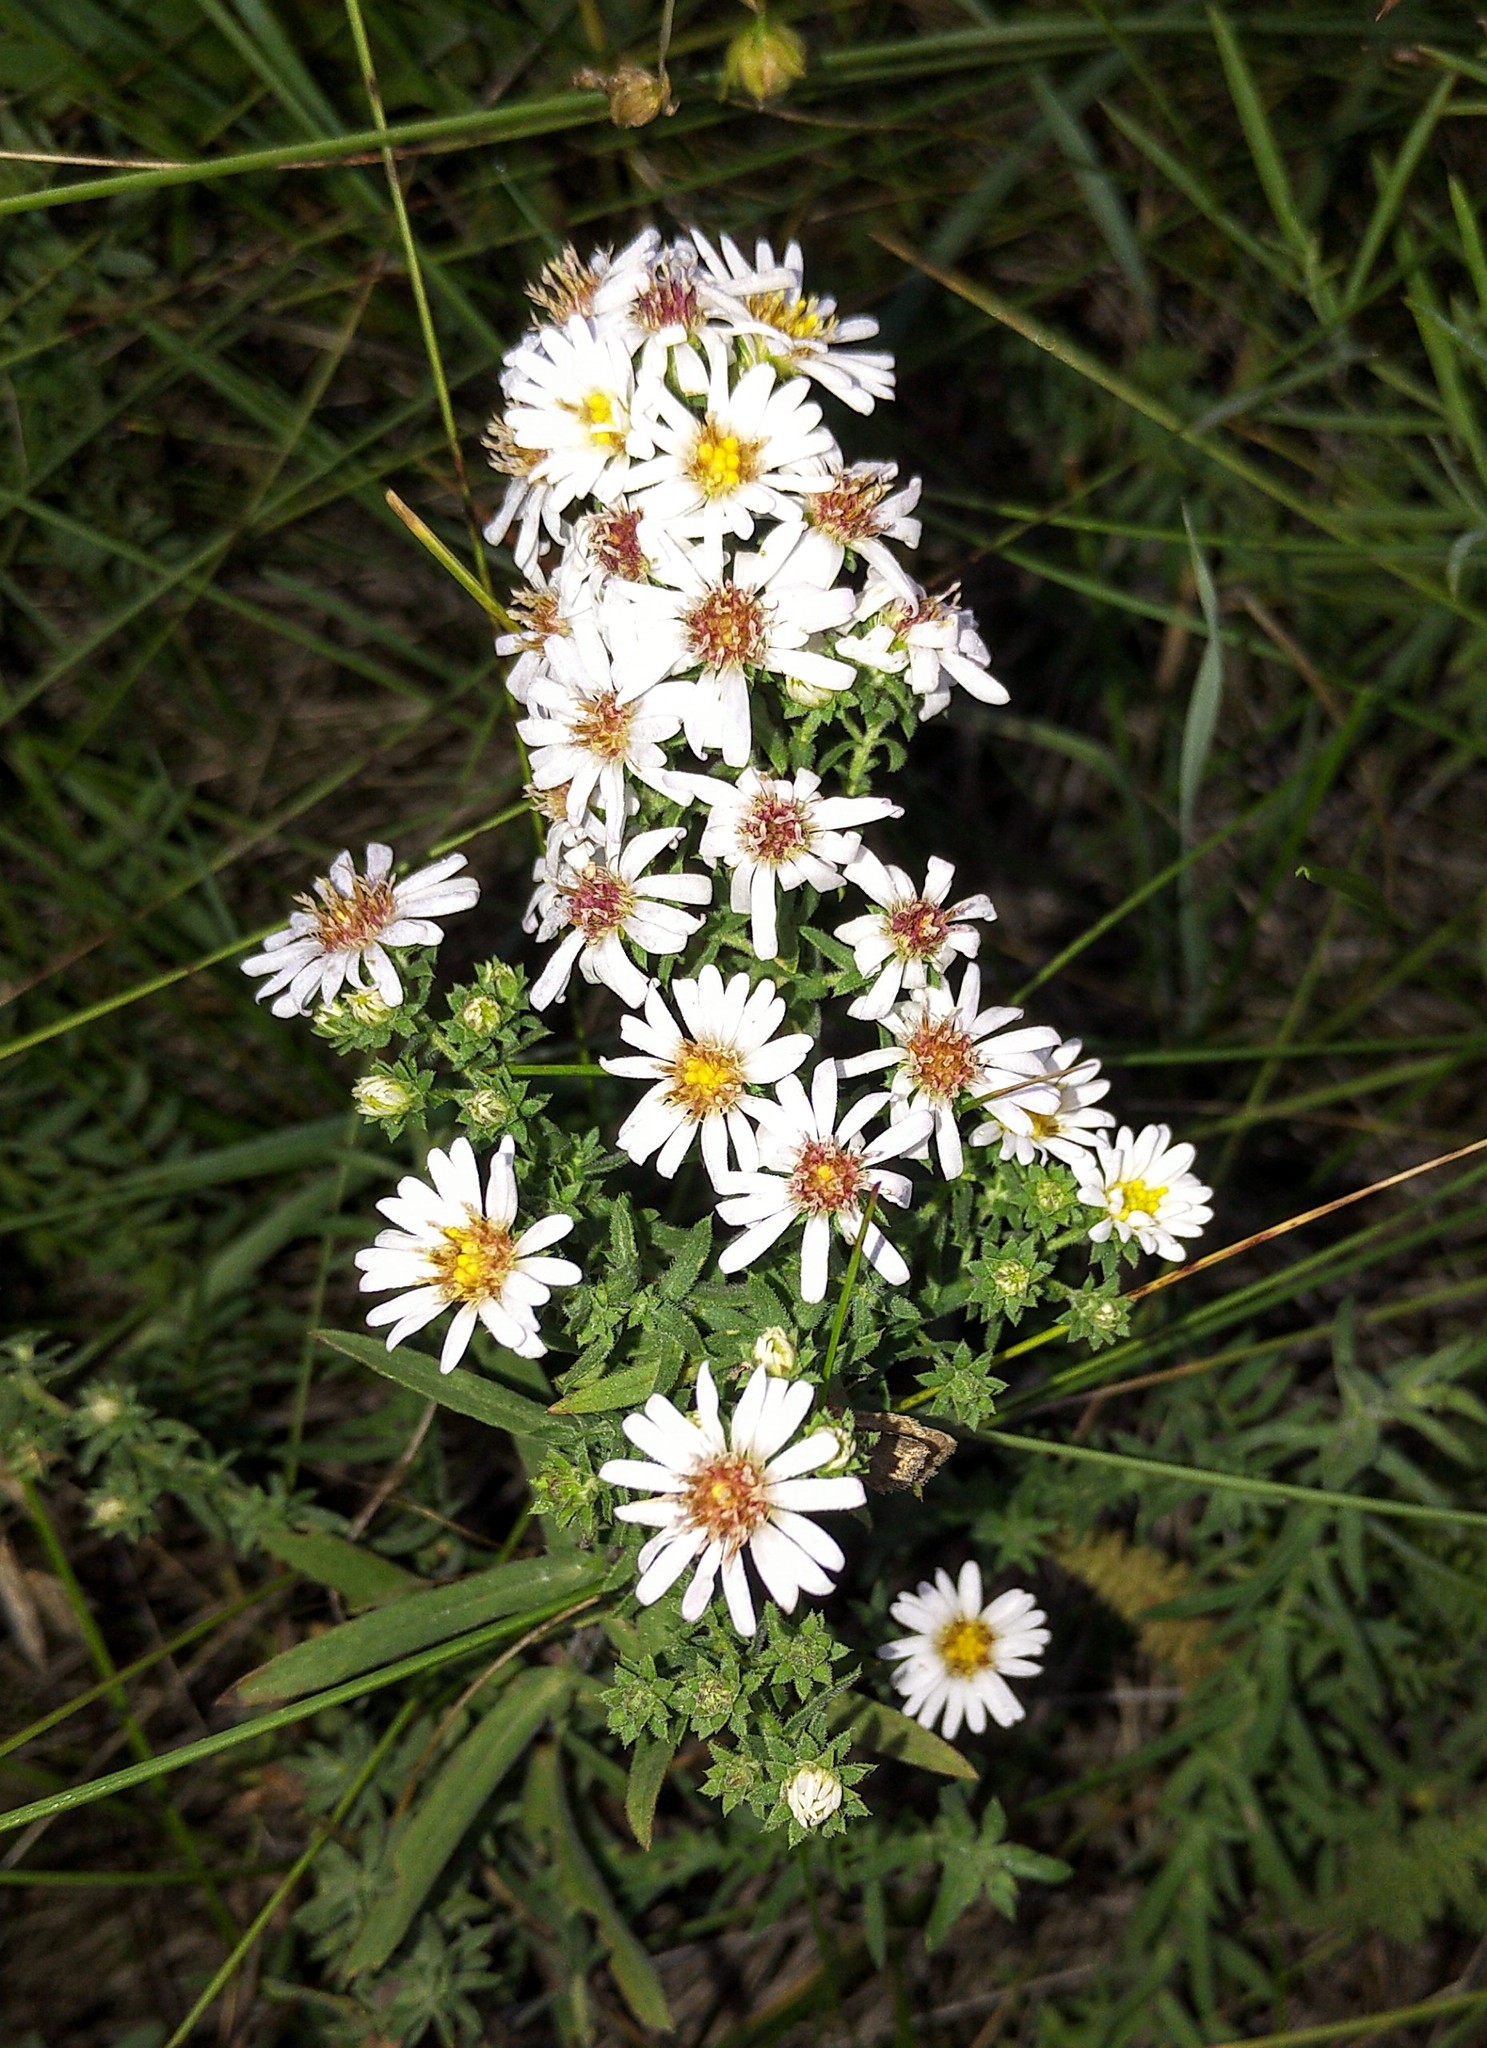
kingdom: Plantae
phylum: Tracheophyta
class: Magnoliopsida
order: Asterales
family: Asteraceae
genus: Symphyotrichum
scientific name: Symphyotrichum ericoides
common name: Heath aster
